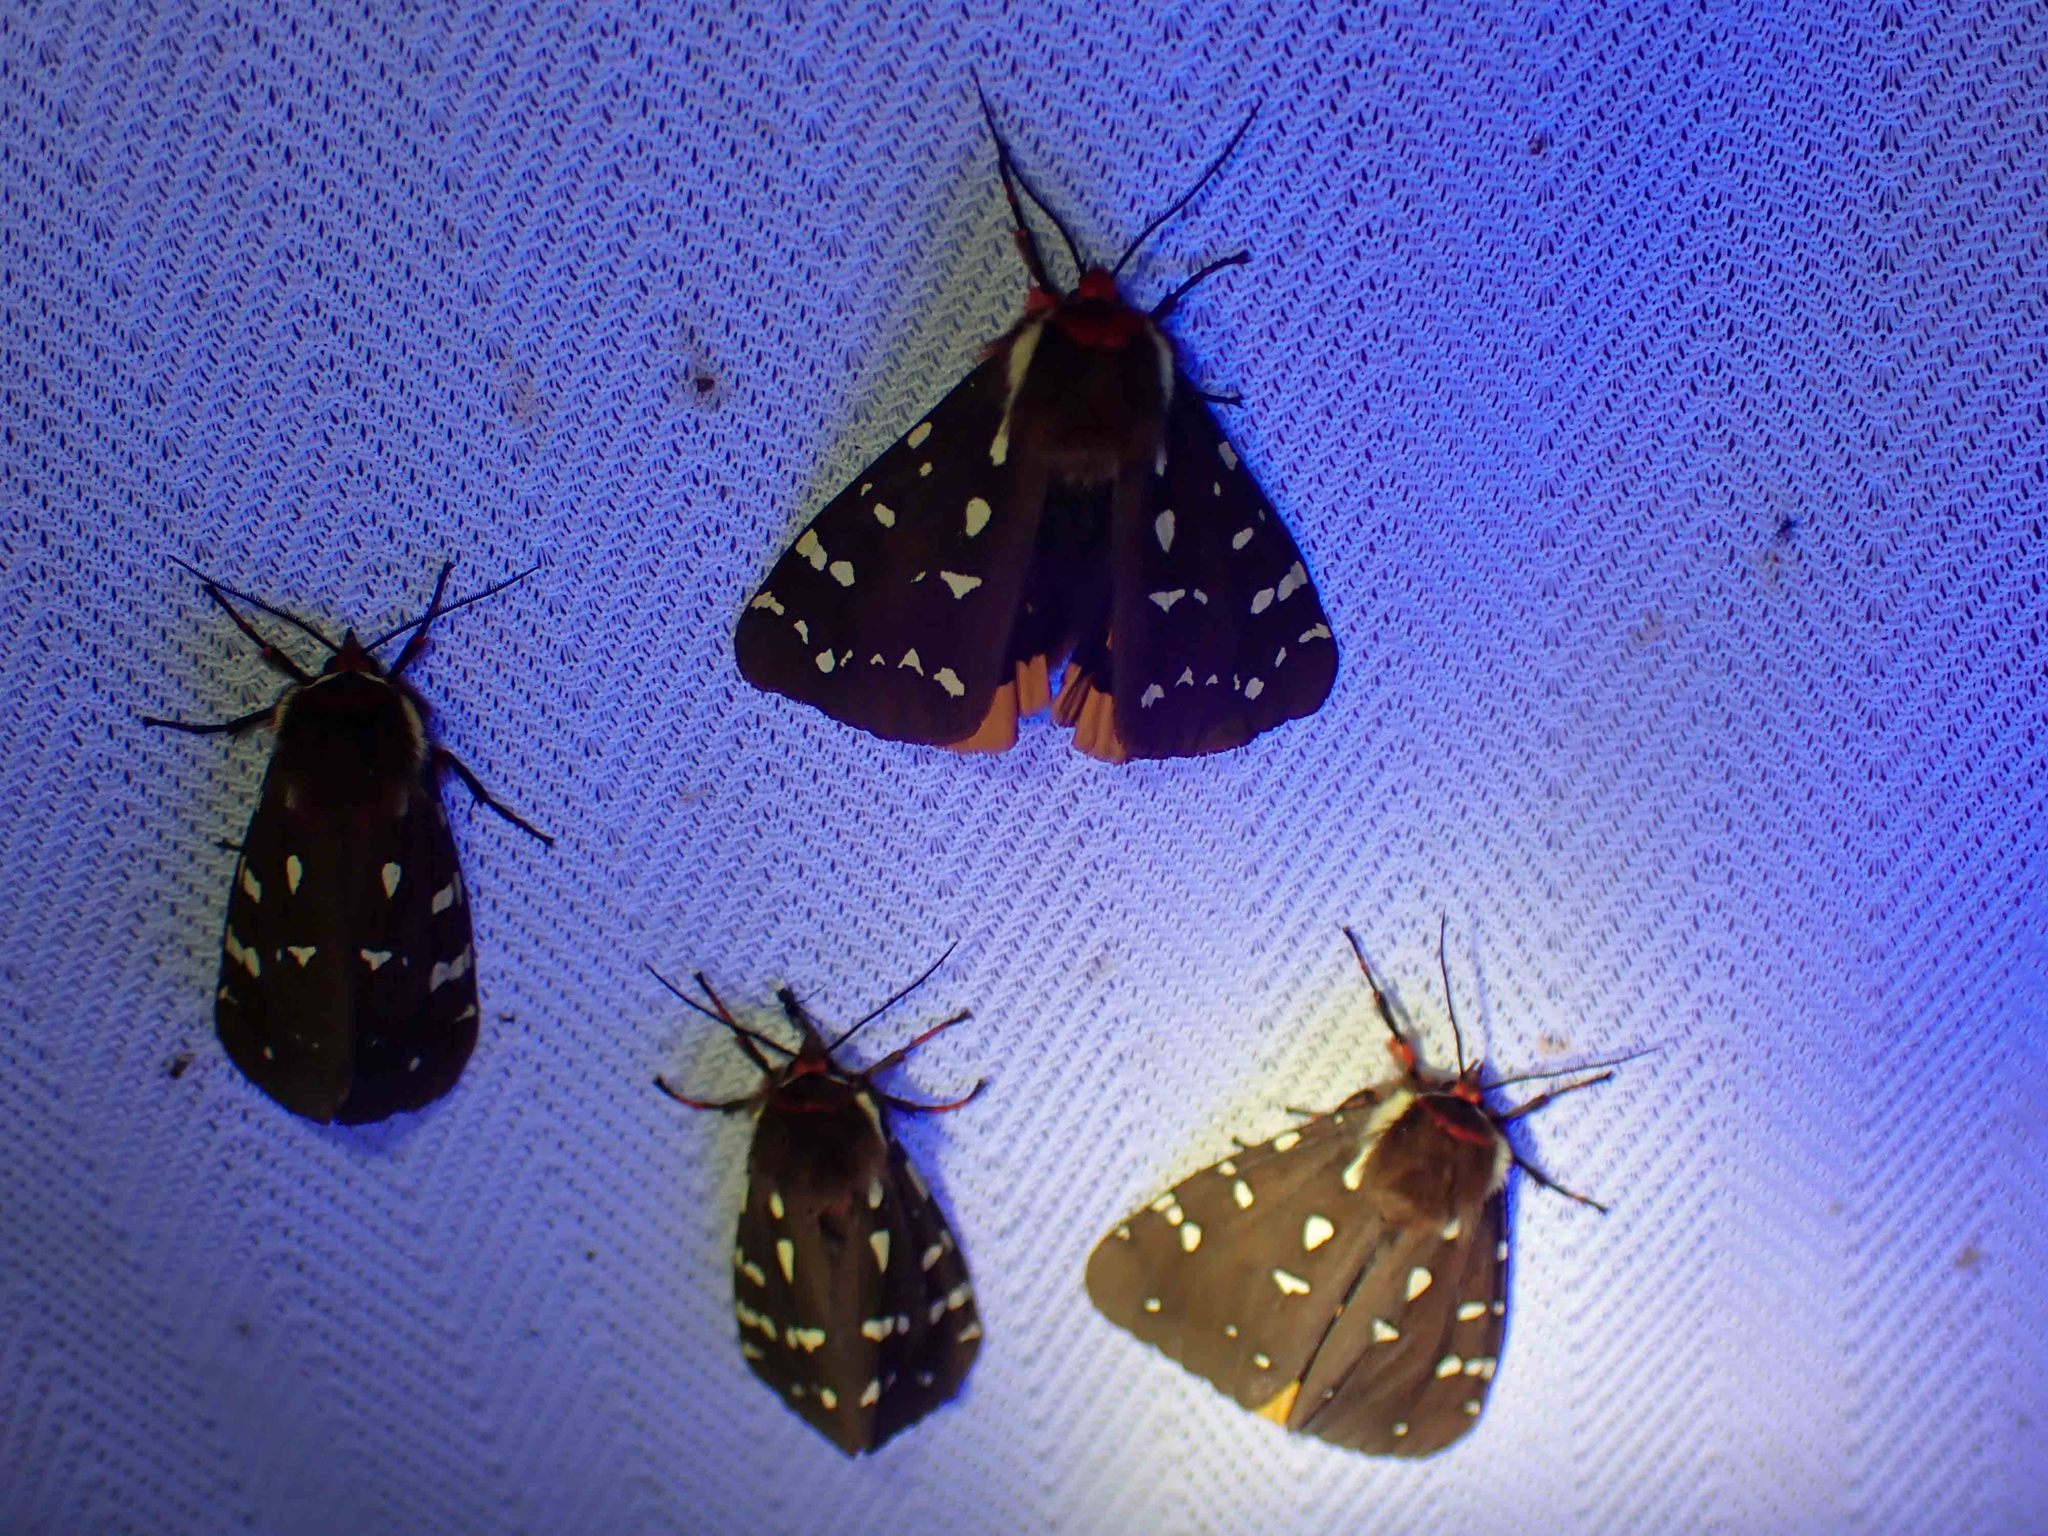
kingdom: Animalia
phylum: Arthropoda
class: Insecta
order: Lepidoptera
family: Erebidae
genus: Arctia
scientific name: Arctia parthenos
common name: St. lawrence tiger moth
